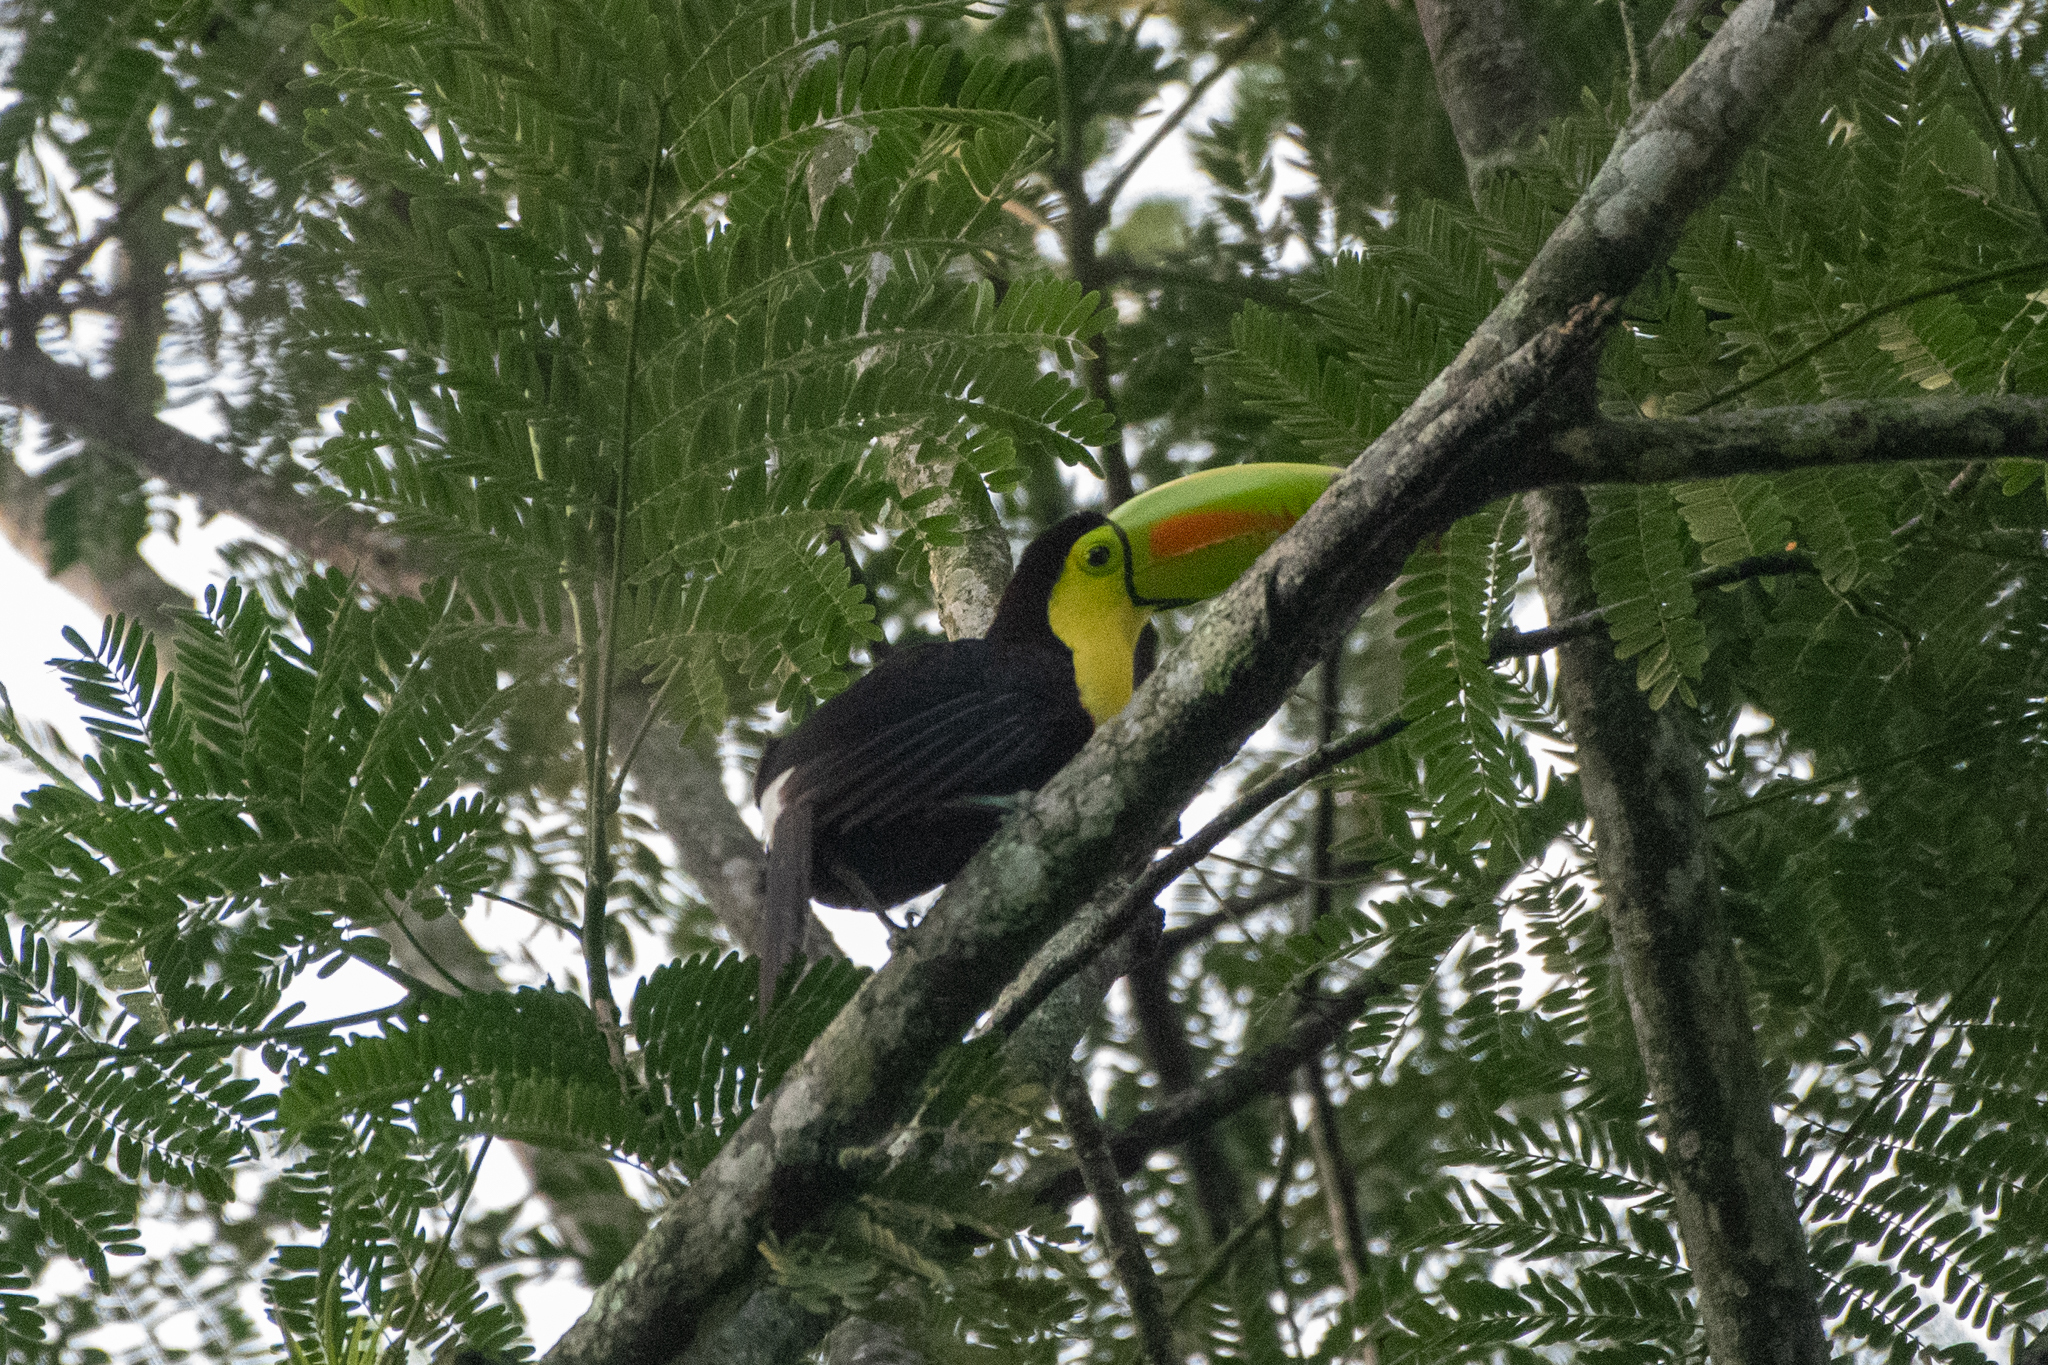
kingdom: Animalia
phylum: Chordata
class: Aves
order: Piciformes
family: Ramphastidae
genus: Ramphastos
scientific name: Ramphastos sulfuratus
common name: Keel-billed toucan
